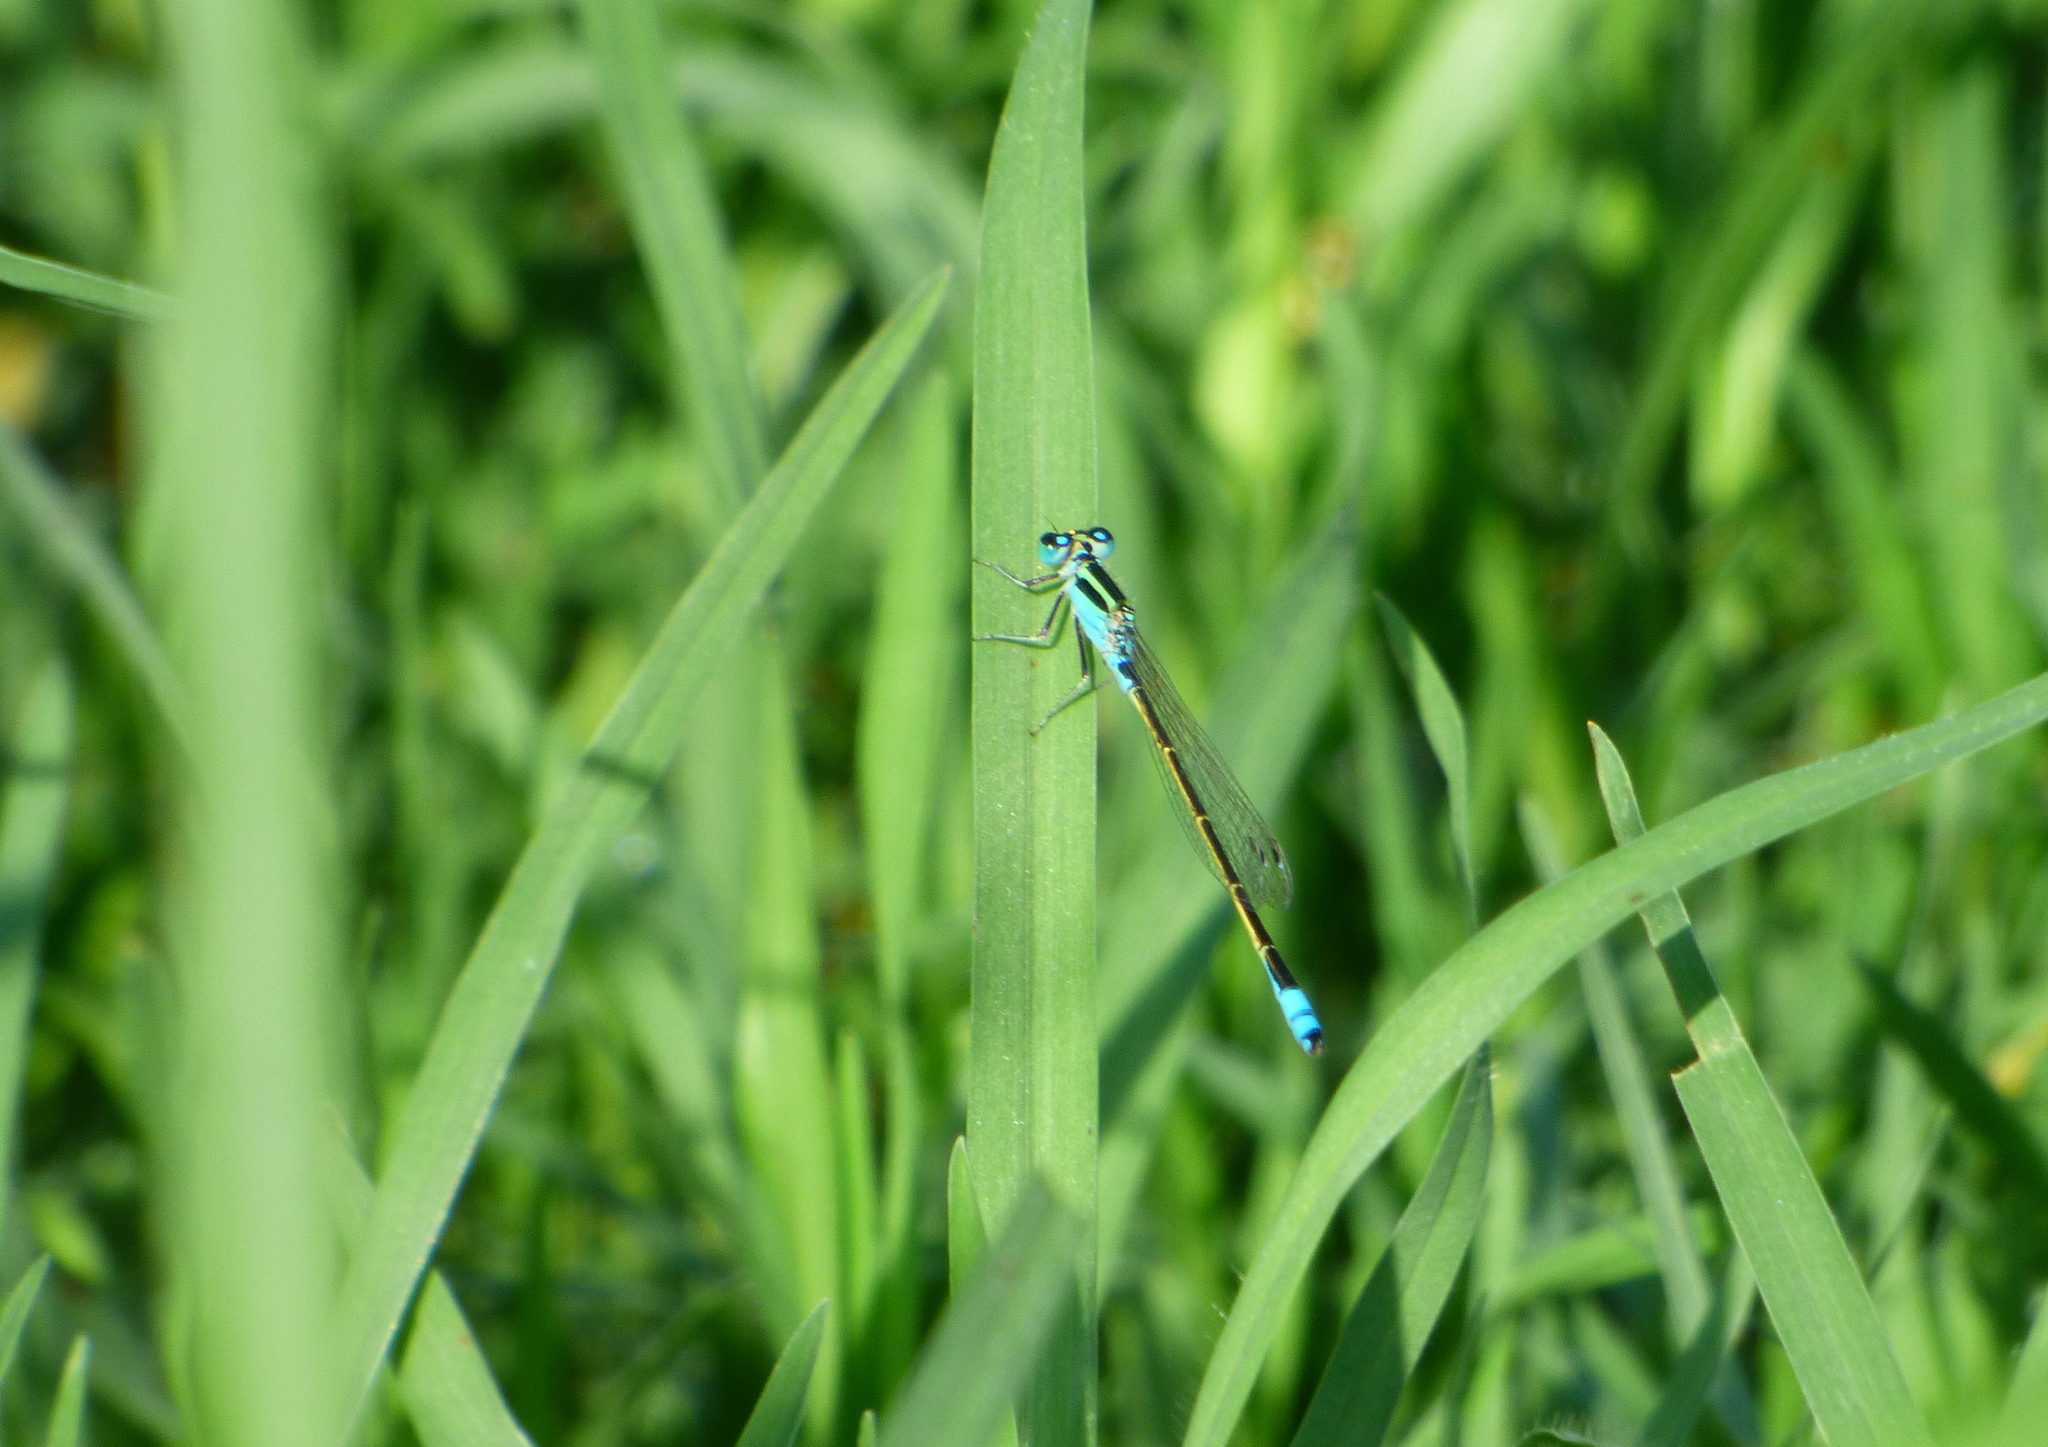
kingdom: Animalia
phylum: Arthropoda
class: Insecta
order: Odonata
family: Coenagrionidae
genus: Ischnura
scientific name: Ischnura fluviatilis
